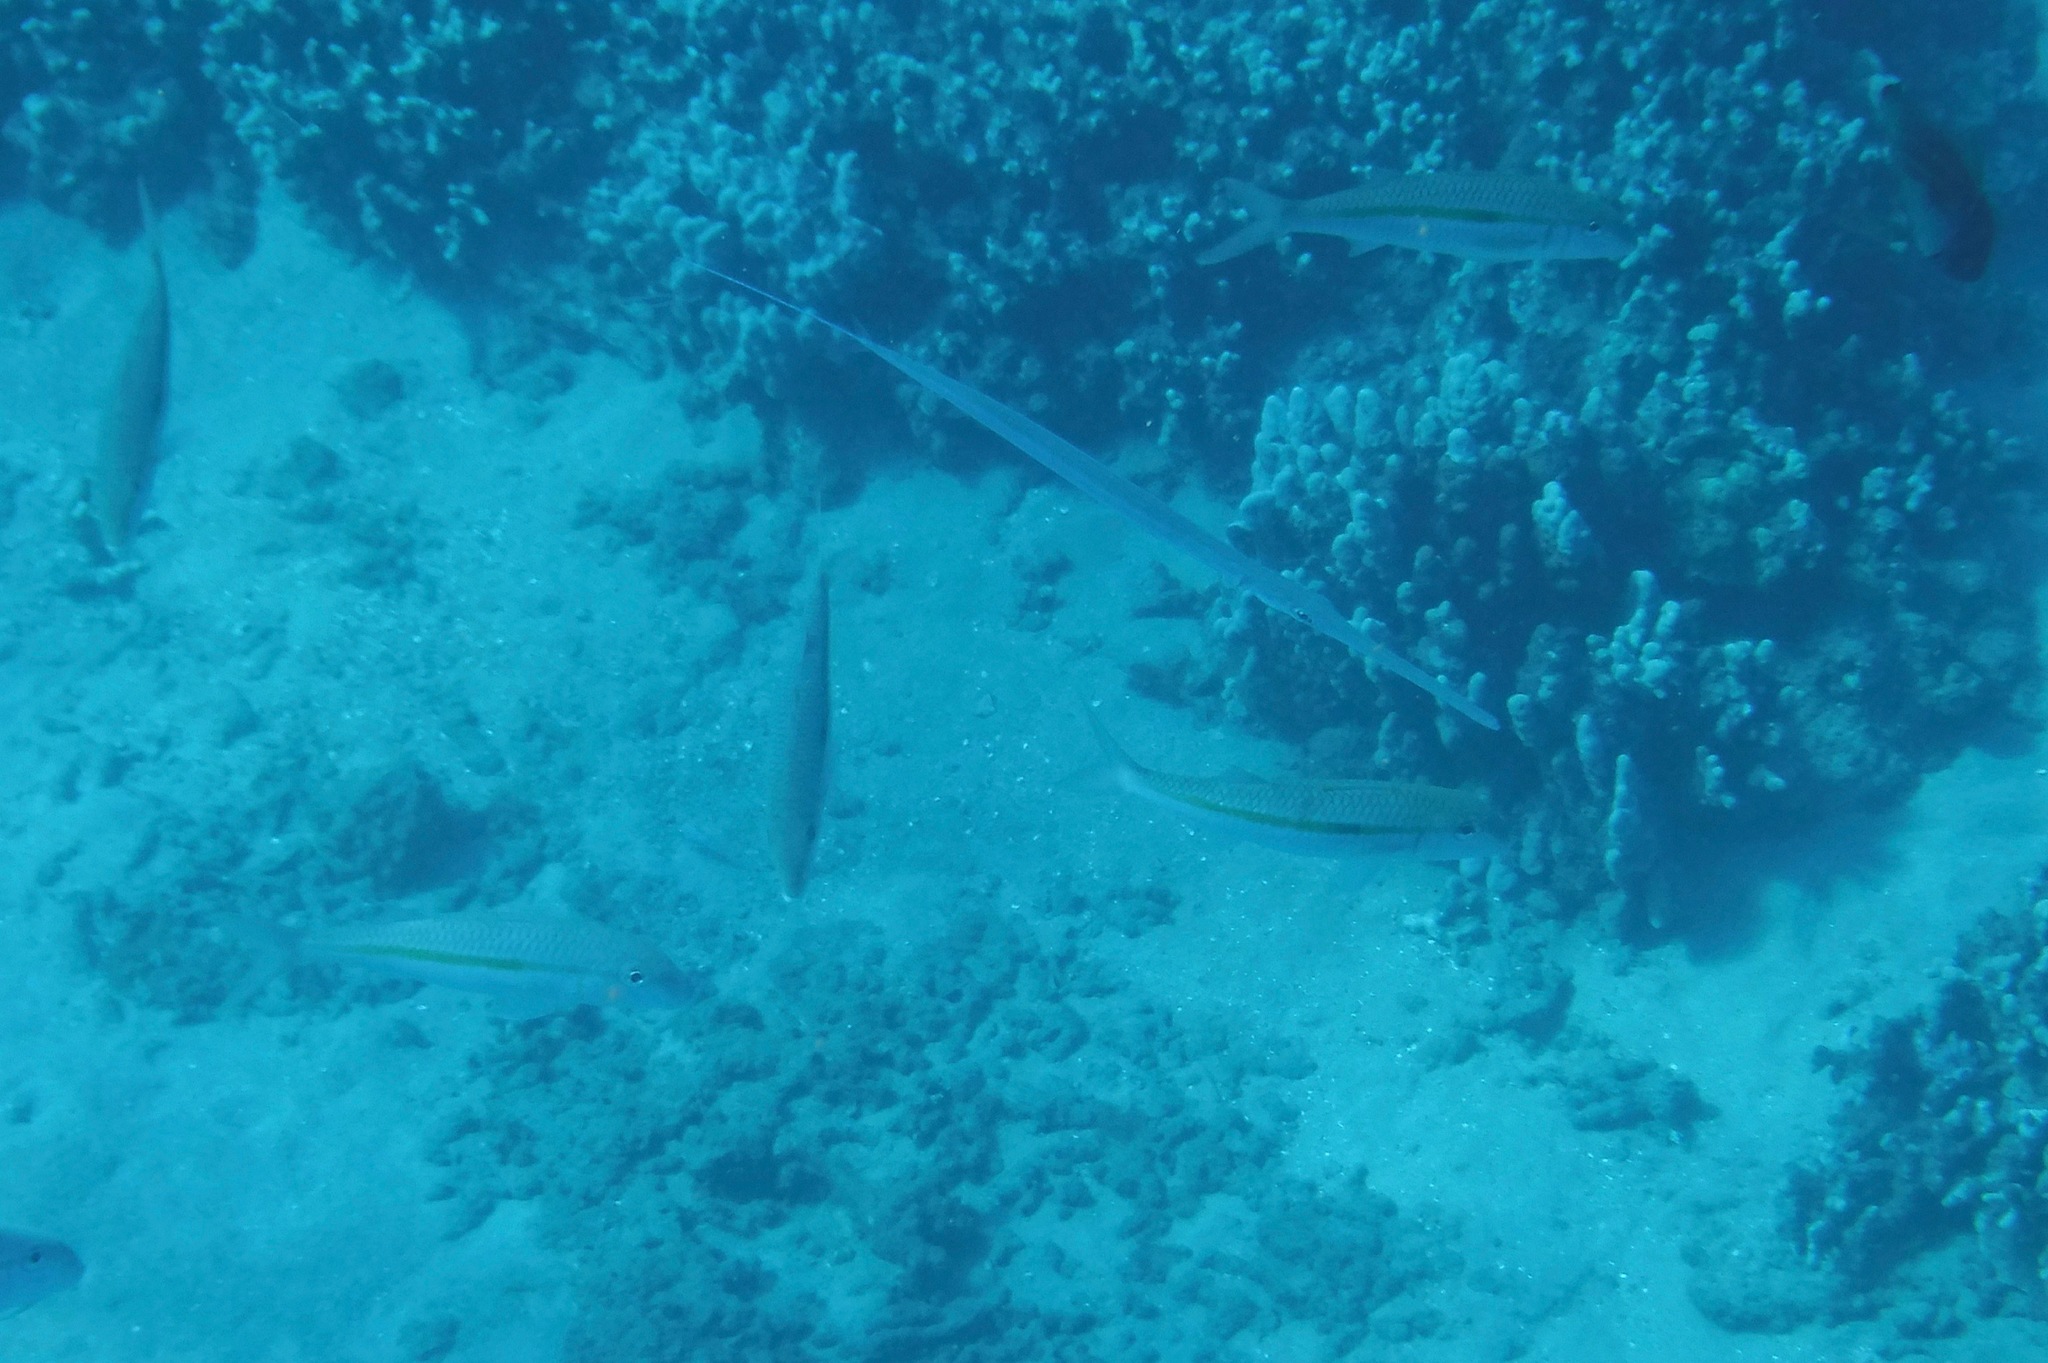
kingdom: Animalia
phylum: Chordata
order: Perciformes
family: Mullidae
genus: Mulloidichthys
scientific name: Mulloidichthys flavolineatus
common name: Yellowstripe goatfish
